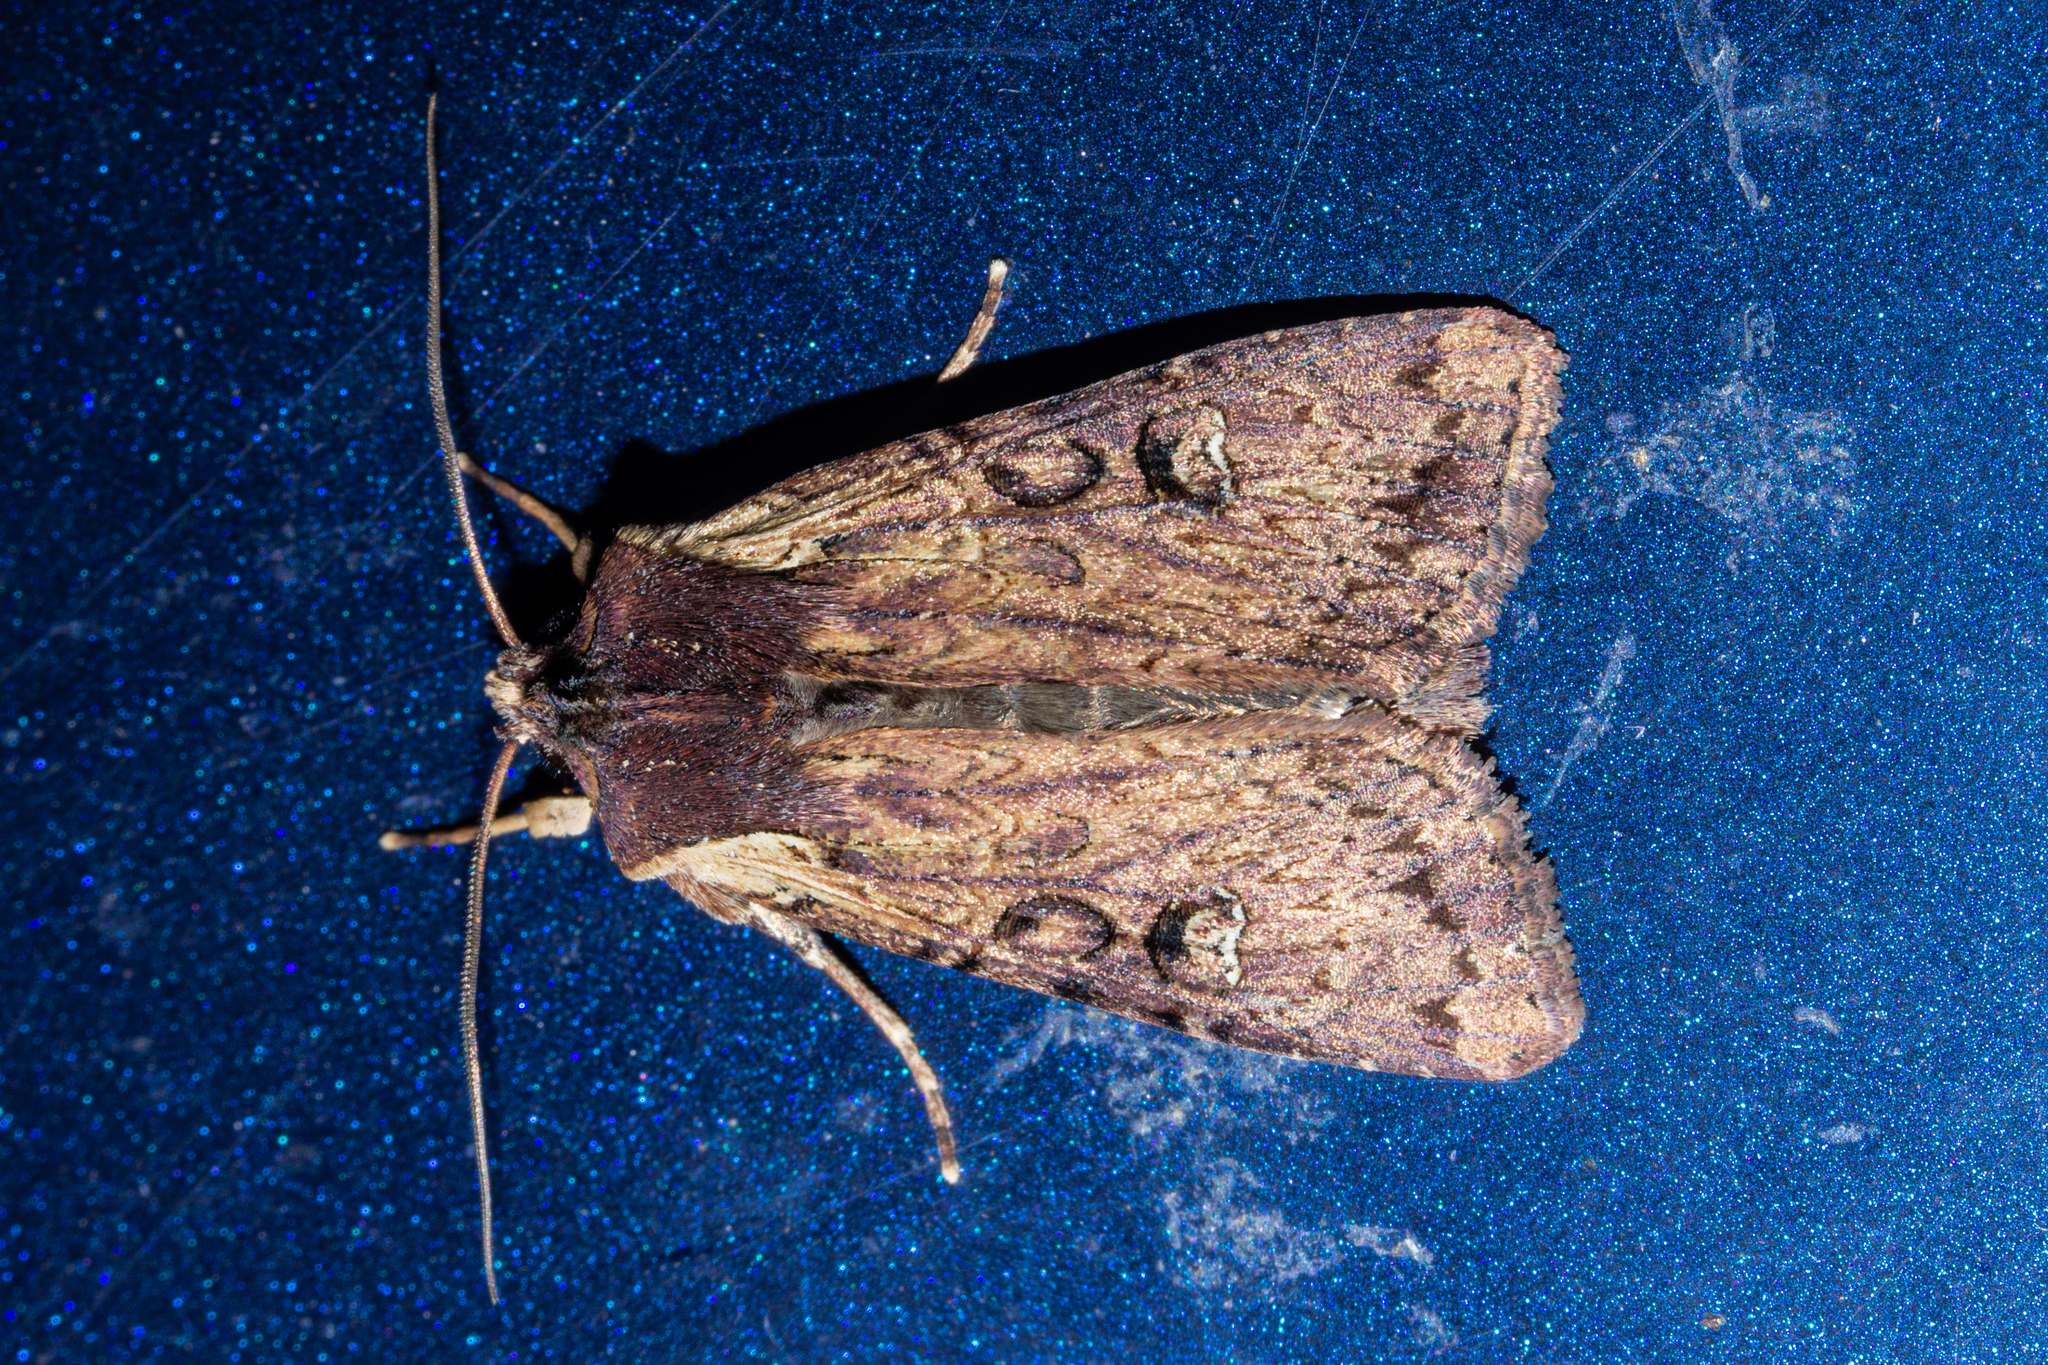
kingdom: Animalia
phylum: Arthropoda
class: Insecta
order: Lepidoptera
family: Noctuidae
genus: Ichneutica
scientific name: Ichneutica omoplaca
